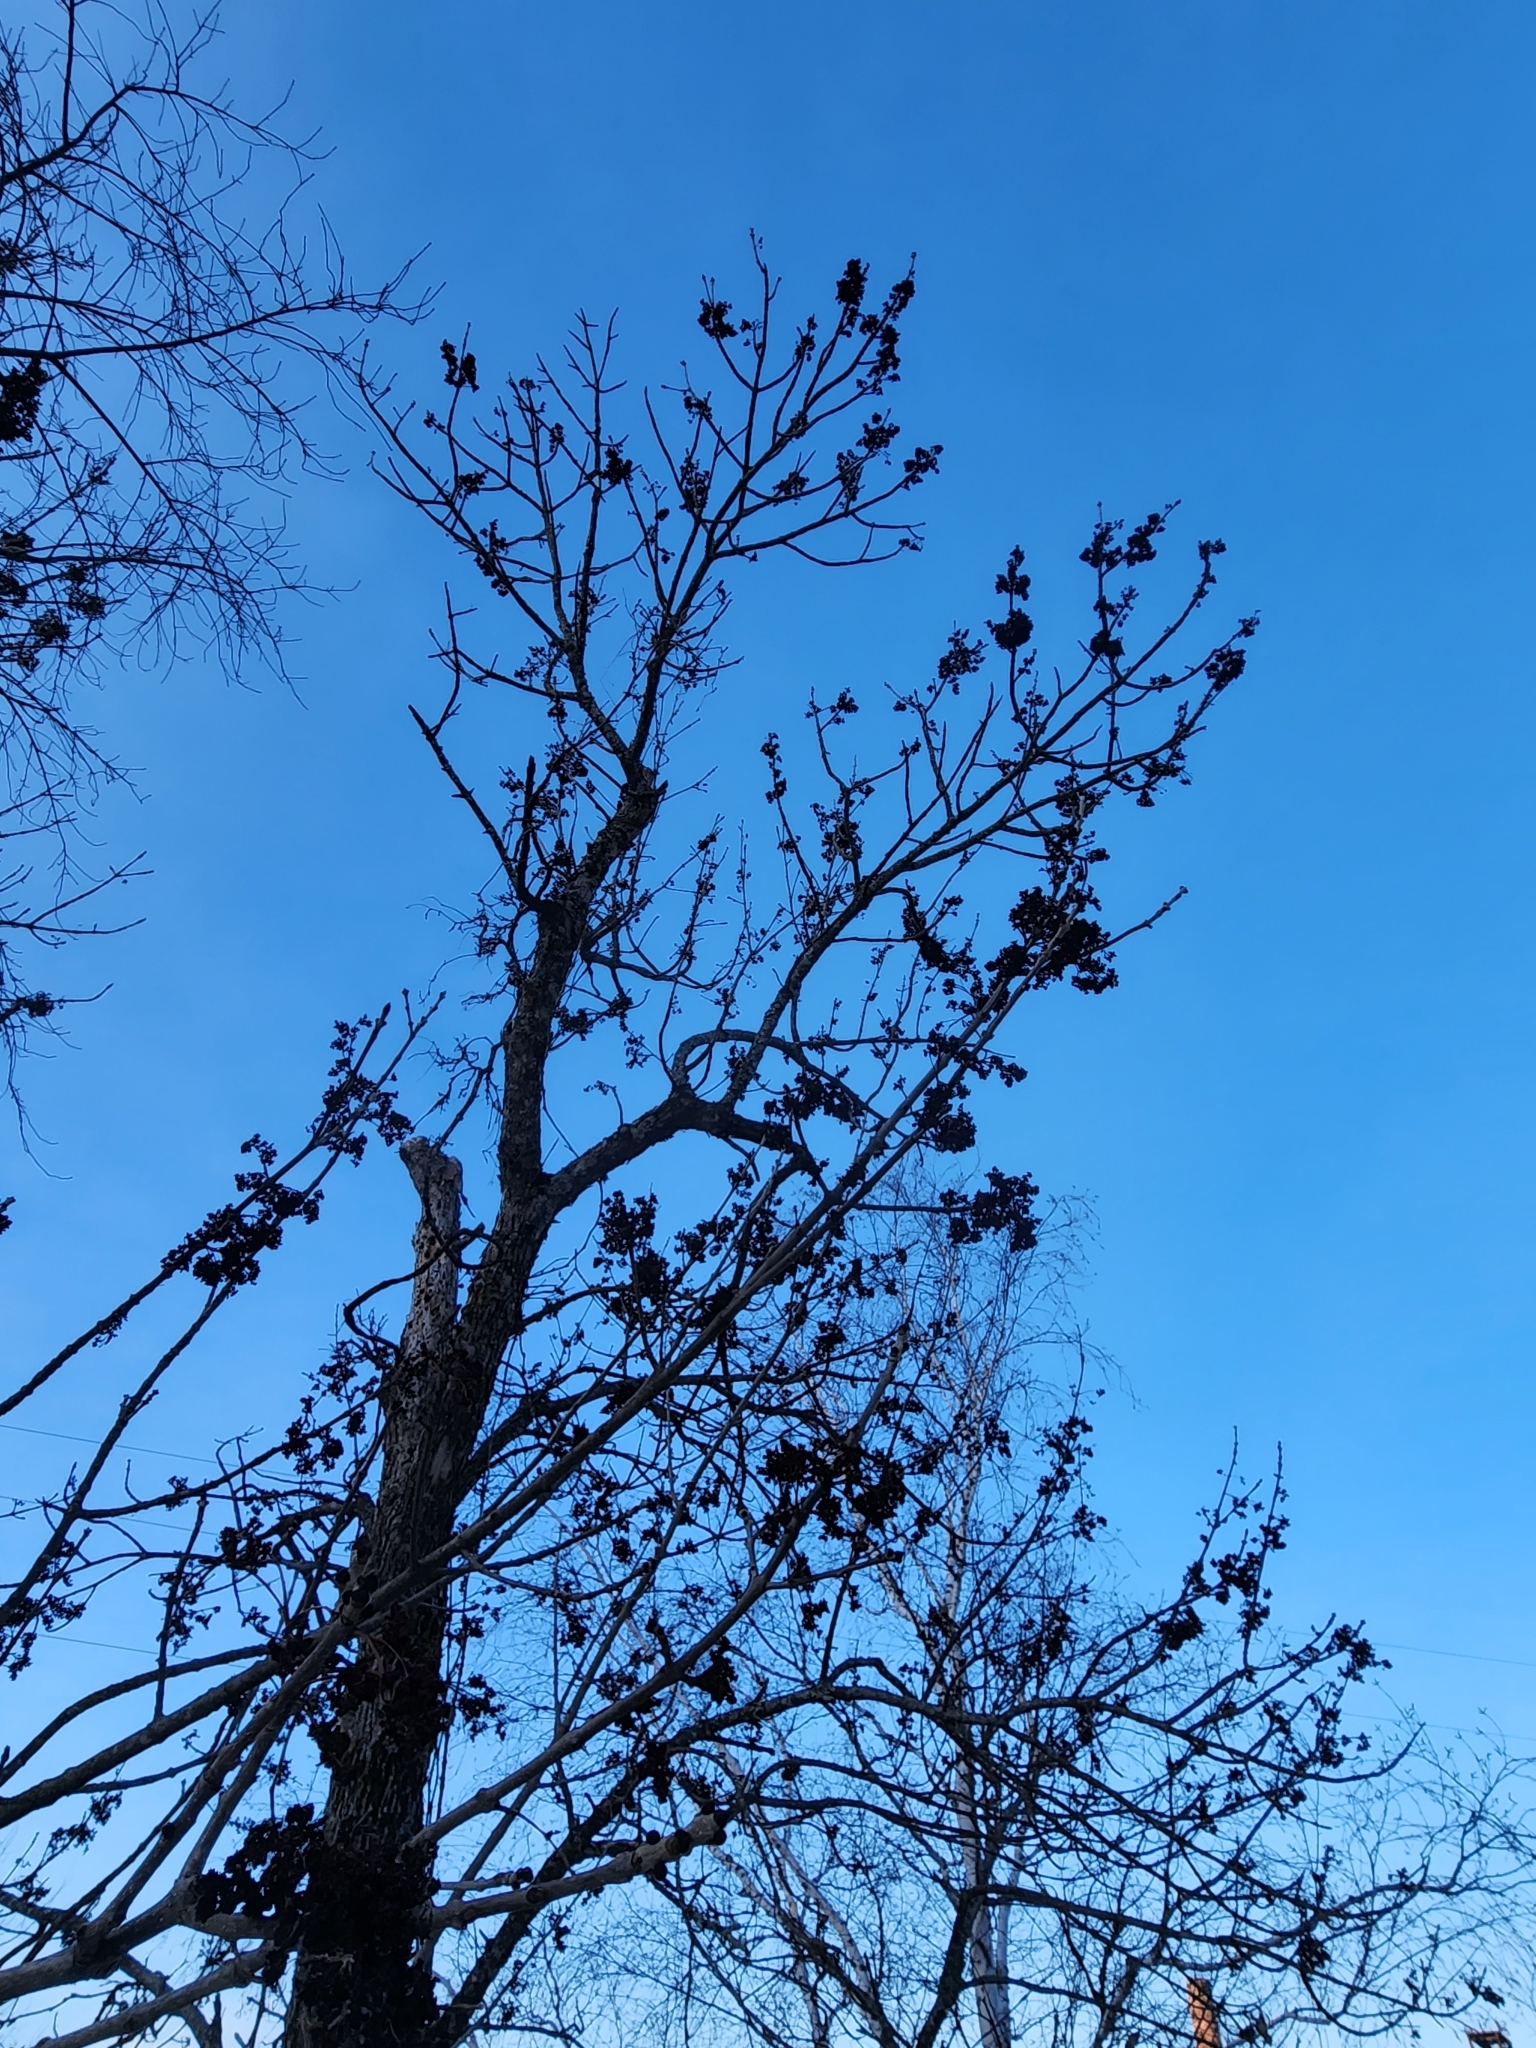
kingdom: Animalia
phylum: Arthropoda
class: Arachnida
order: Trombidiformes
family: Eriophyidae
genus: Aceria
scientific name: Aceria fraxiniflora
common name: Ash flower gall mite
